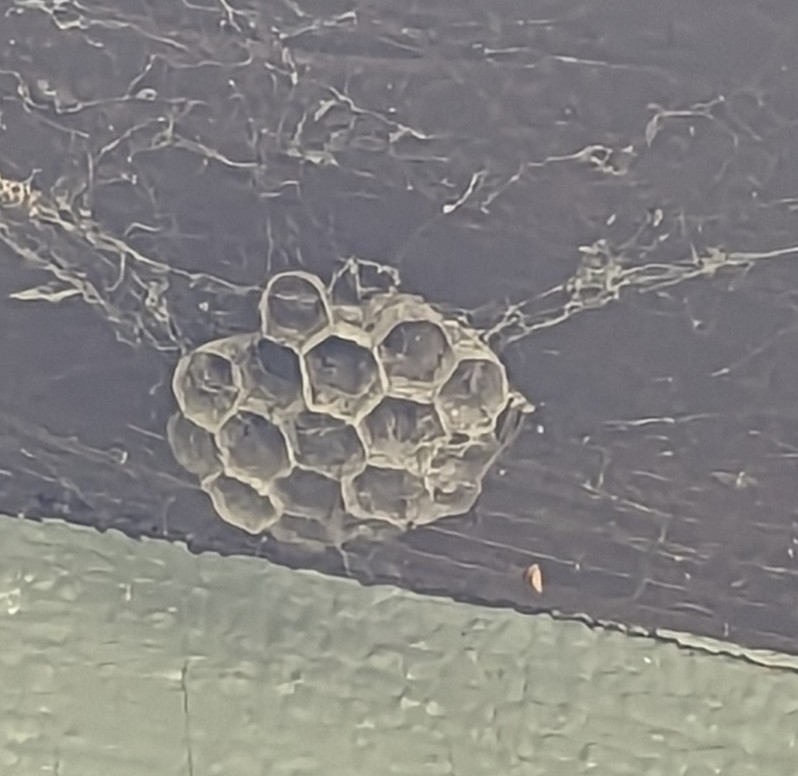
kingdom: Animalia
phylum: Arthropoda
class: Insecta
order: Hymenoptera
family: Eumenidae
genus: Polistes
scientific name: Polistes
